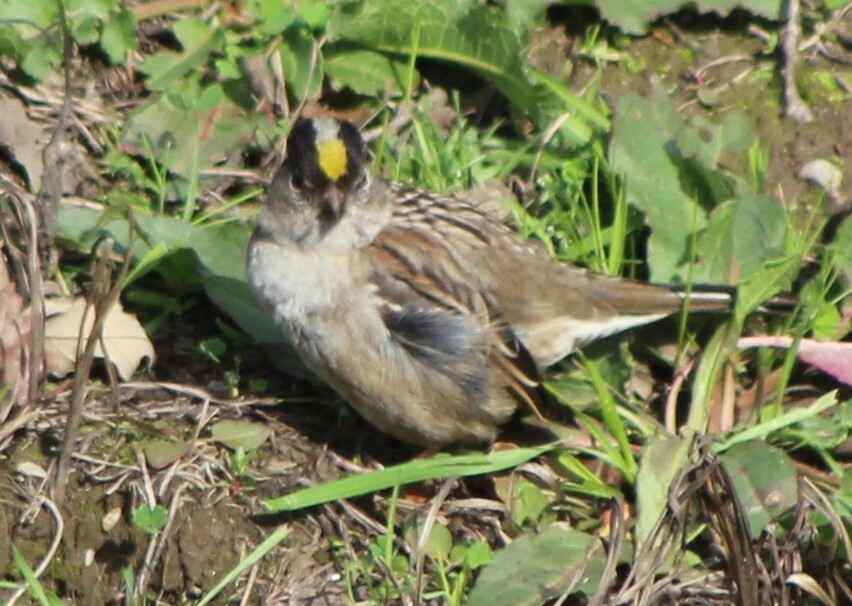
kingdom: Animalia
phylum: Chordata
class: Aves
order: Passeriformes
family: Passerellidae
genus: Zonotrichia
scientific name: Zonotrichia atricapilla
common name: Golden-crowned sparrow
